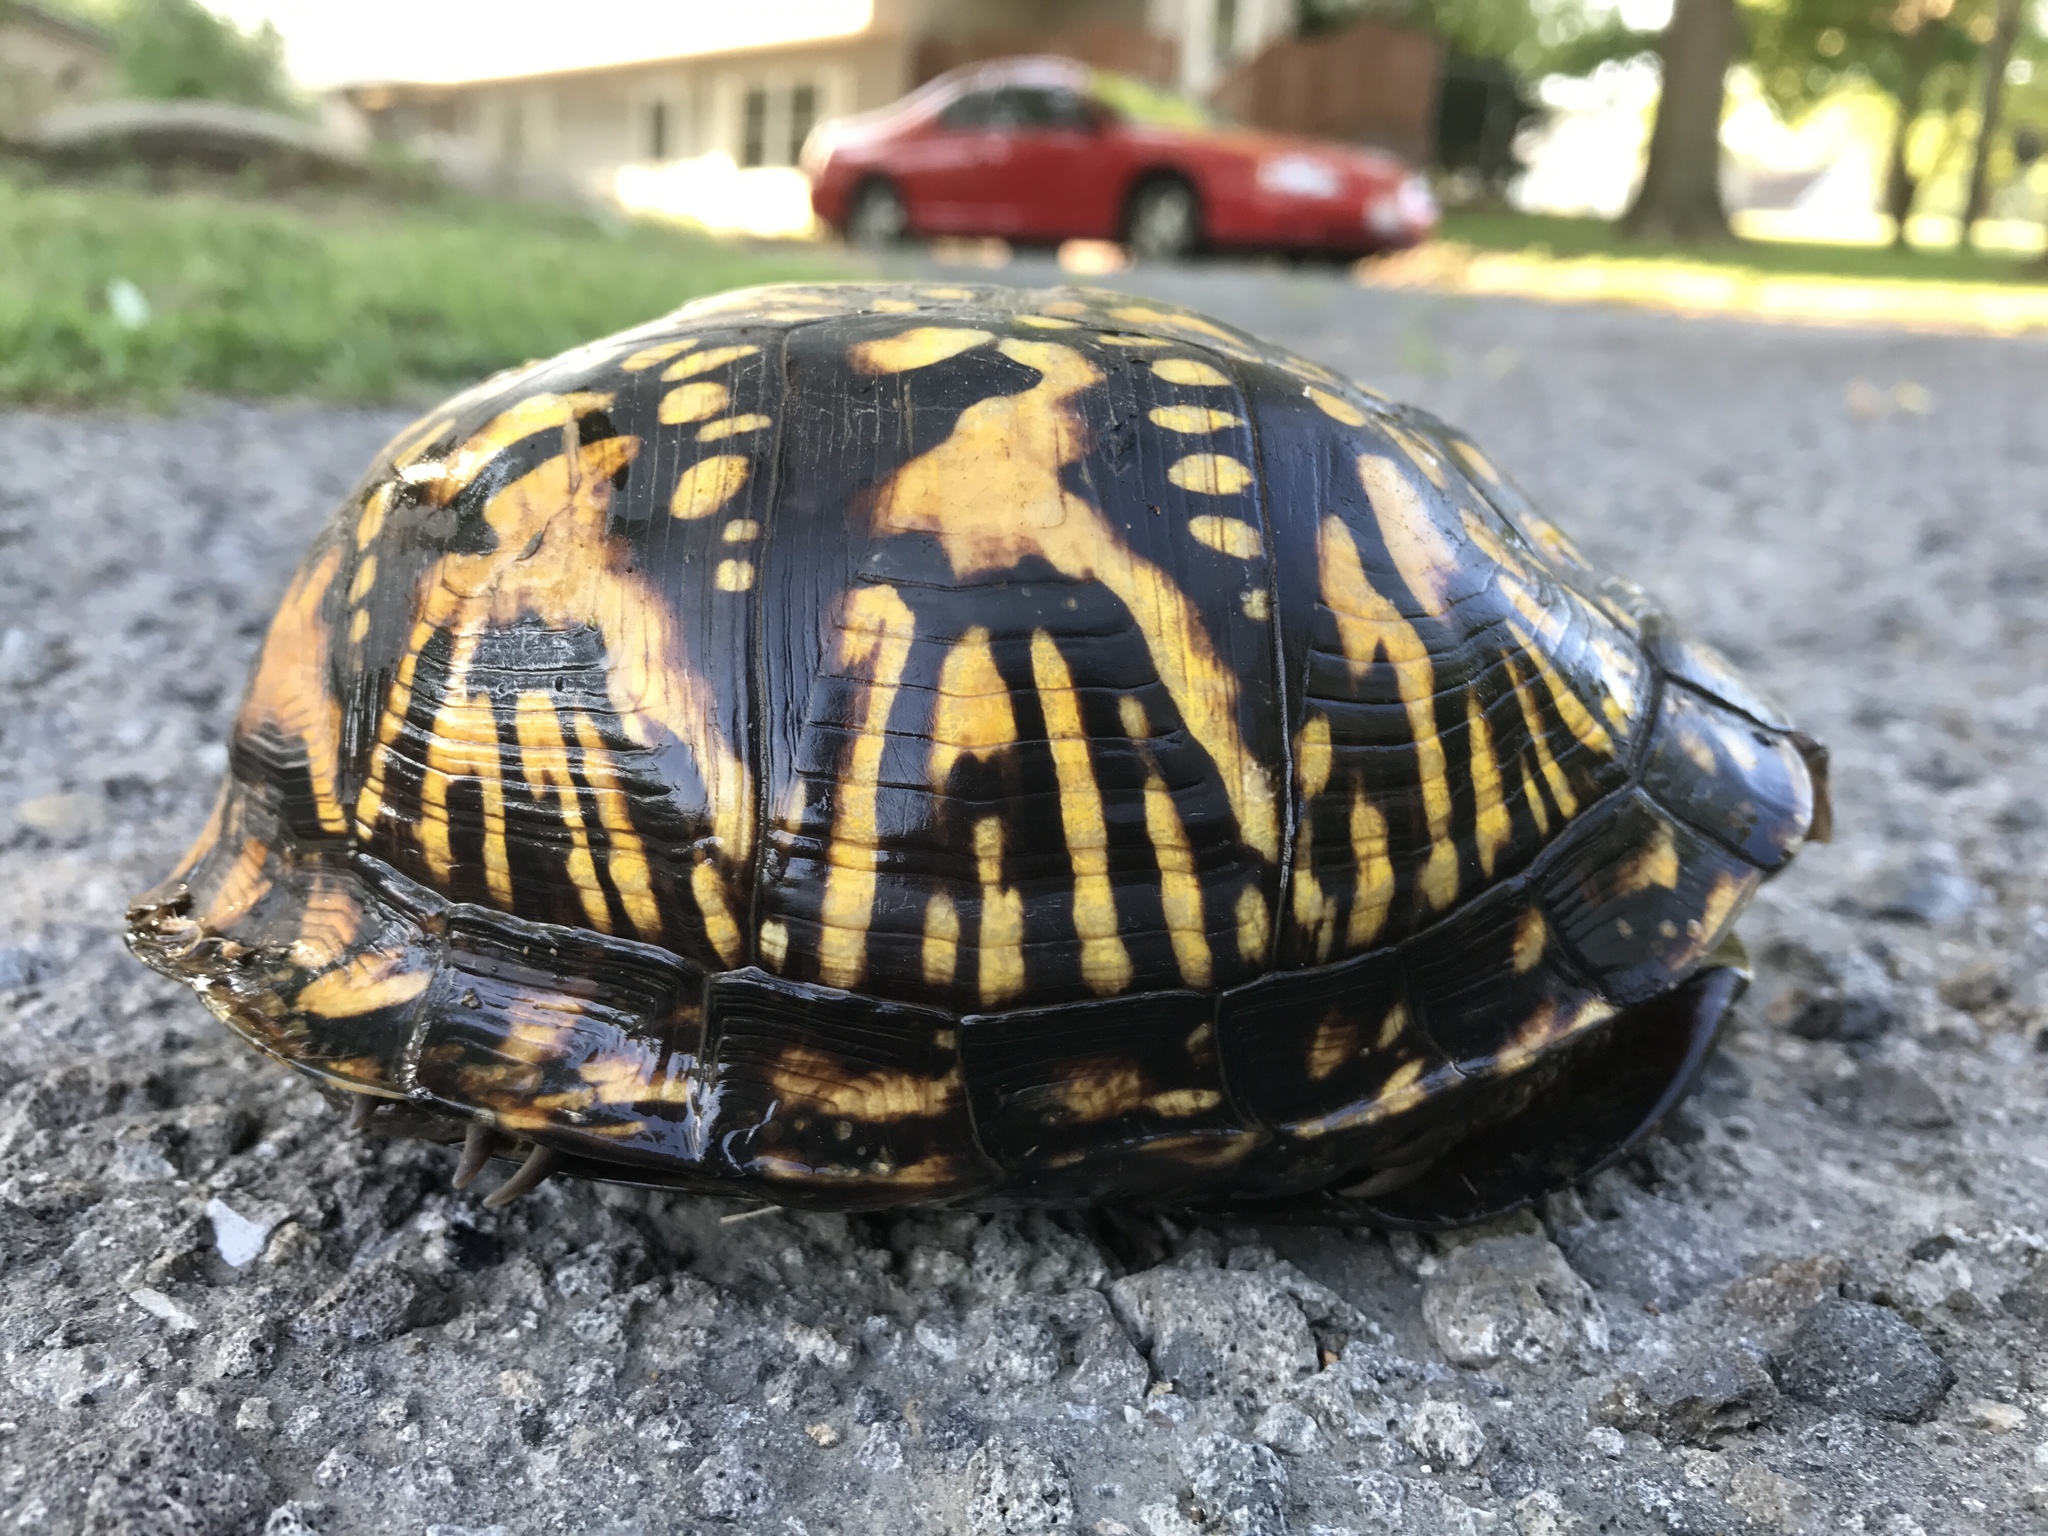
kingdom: Animalia
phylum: Chordata
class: Testudines
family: Emydidae
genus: Terrapene
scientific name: Terrapene carolina
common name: Common box turtle
